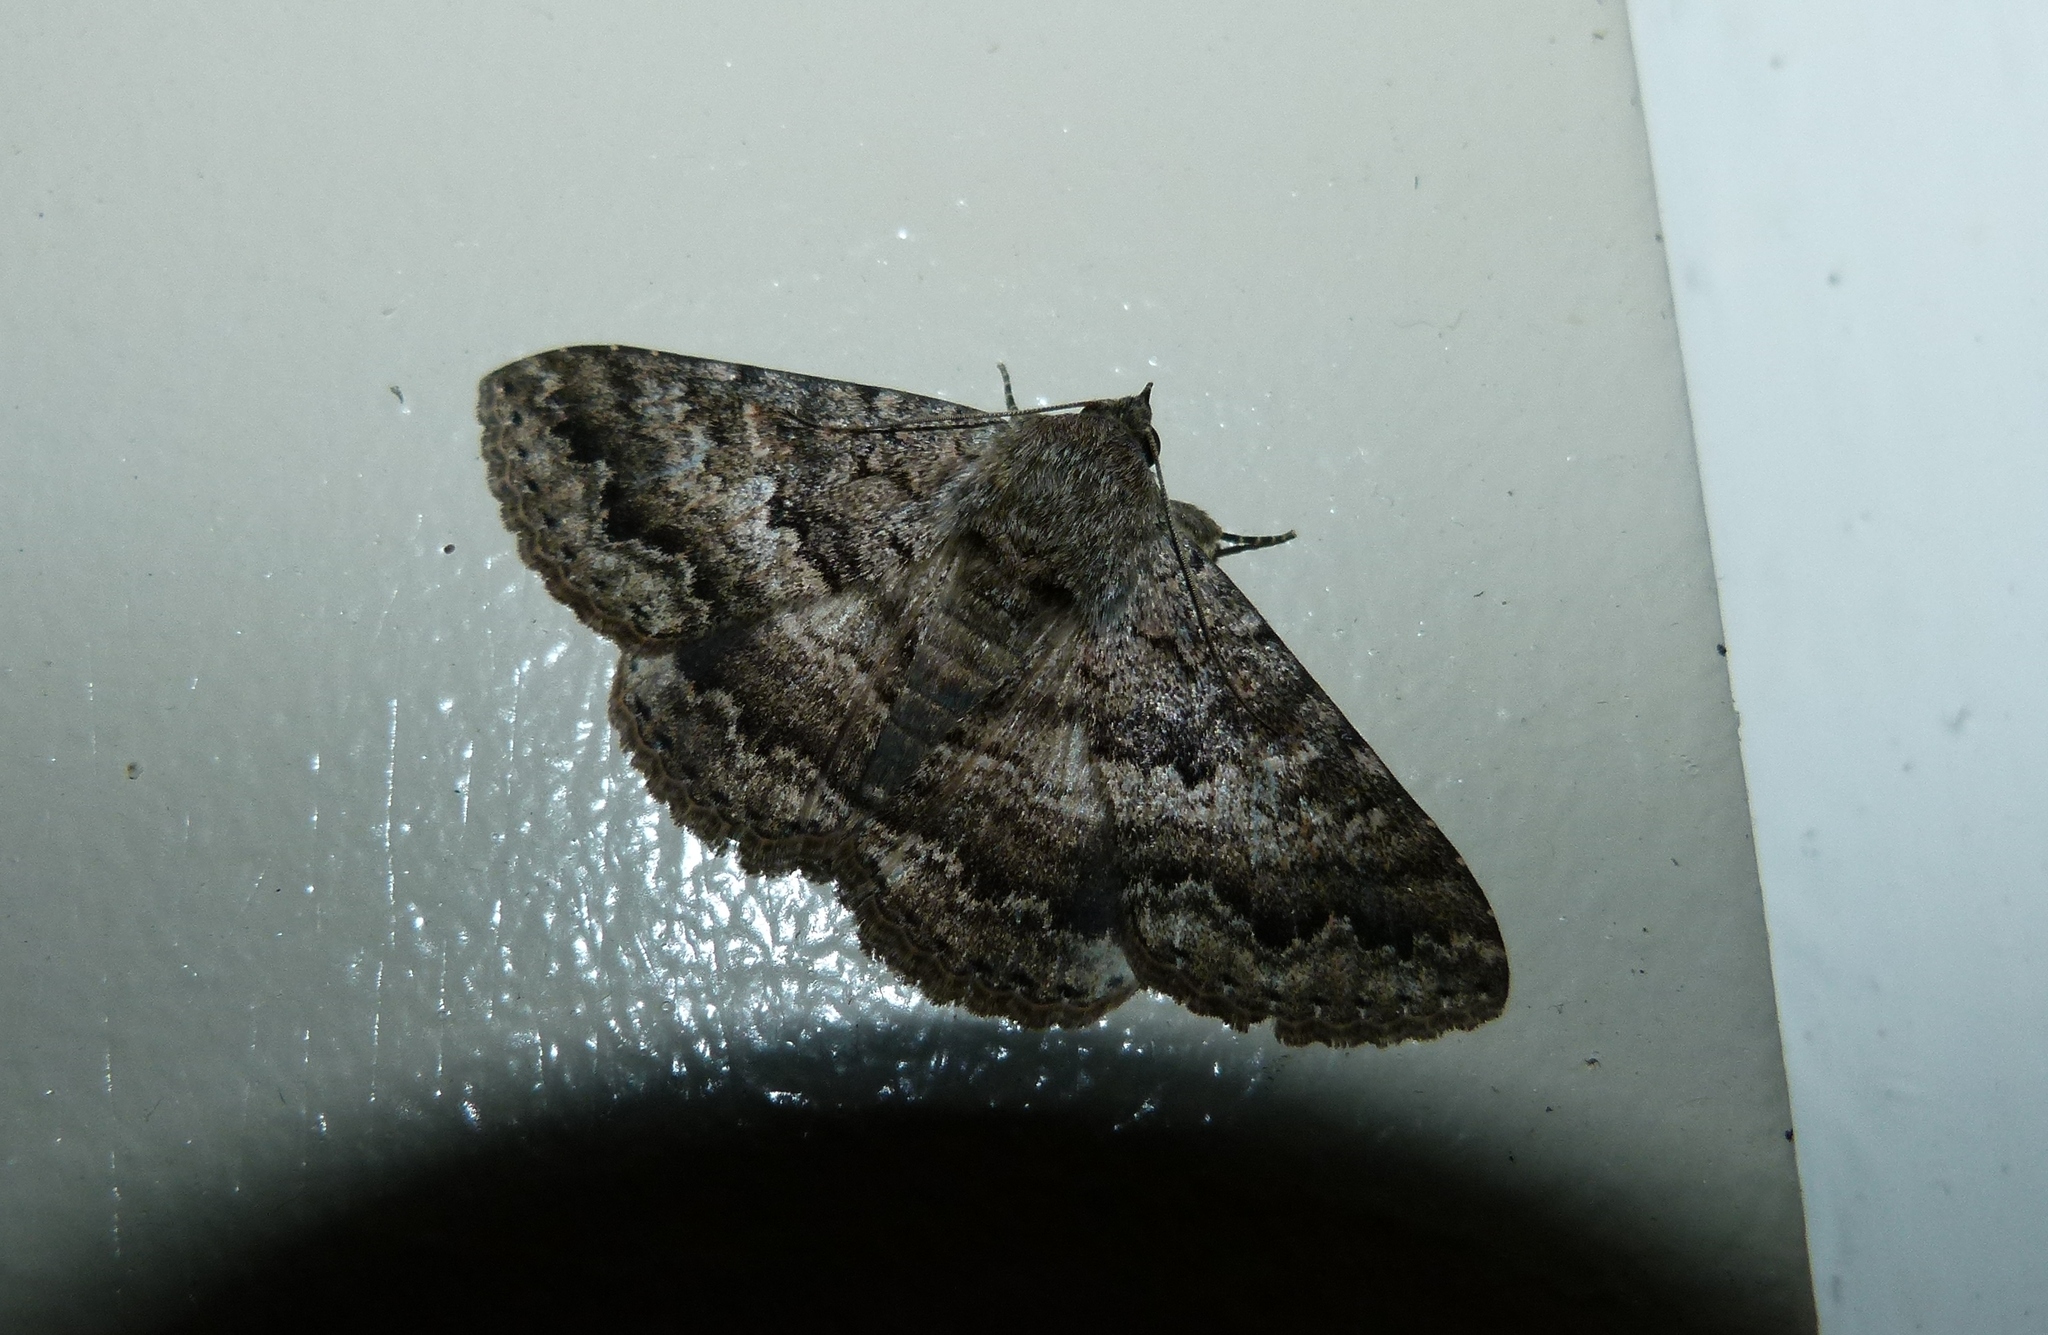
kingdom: Animalia
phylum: Arthropoda
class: Insecta
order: Lepidoptera
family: Erebidae
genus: Eudesmeola
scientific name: Eudesmeola lawsoni
